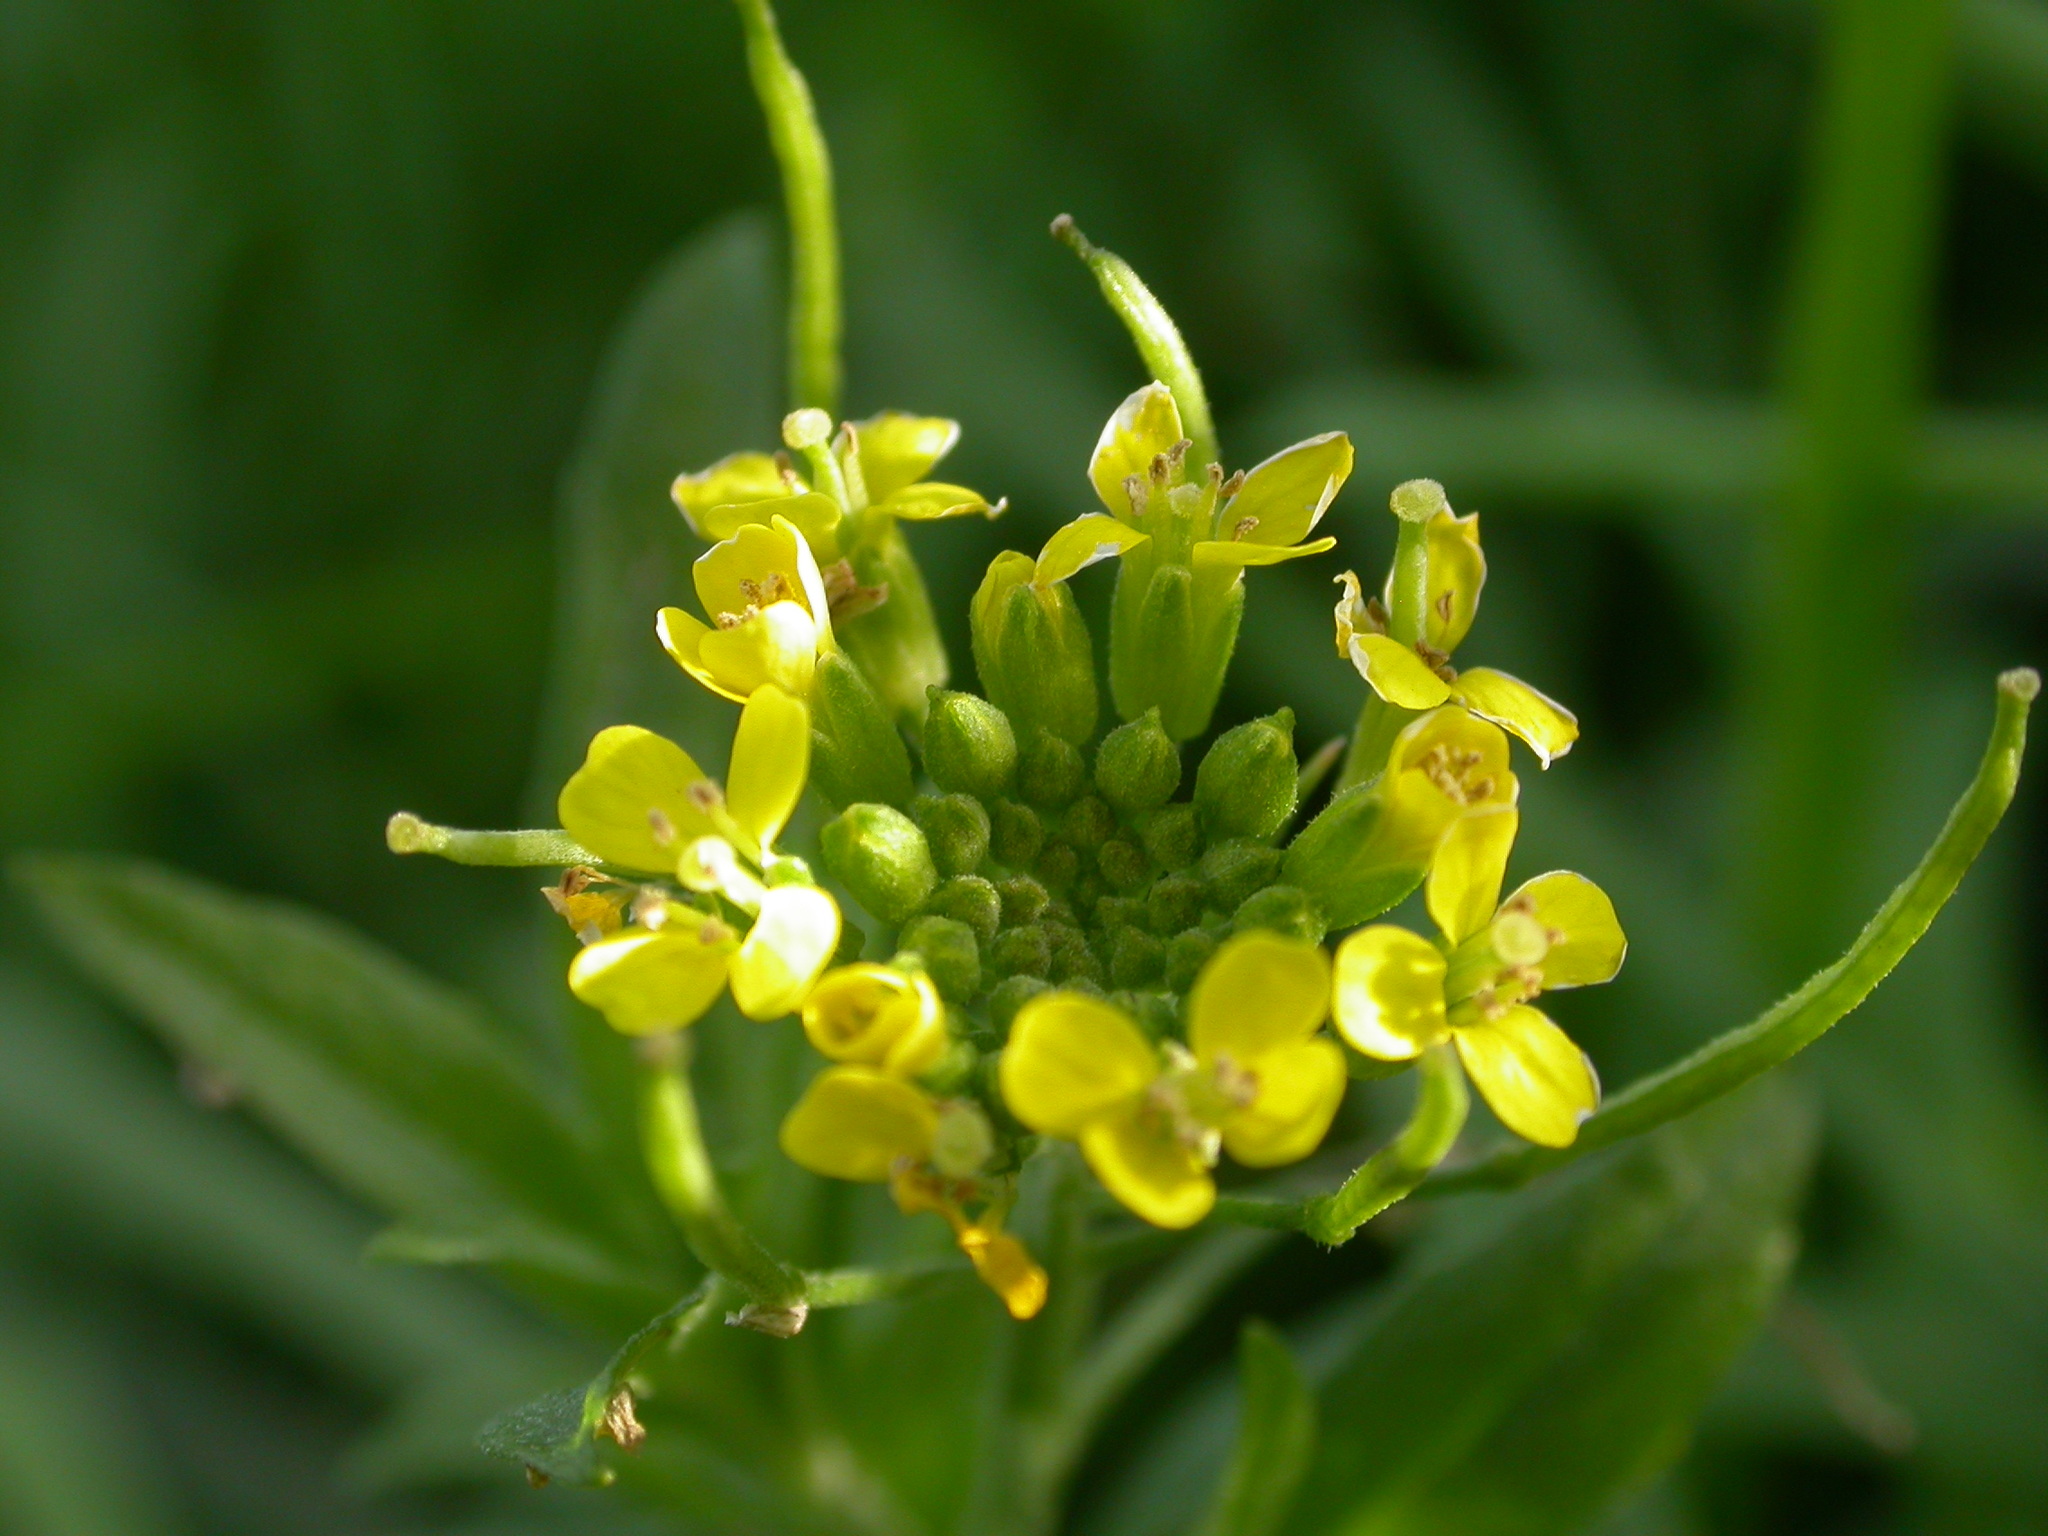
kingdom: Plantae
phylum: Tracheophyta
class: Magnoliopsida
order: Brassicales
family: Brassicaceae
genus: Erysimum
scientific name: Erysimum cheiranthoides
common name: Treacle mustard
